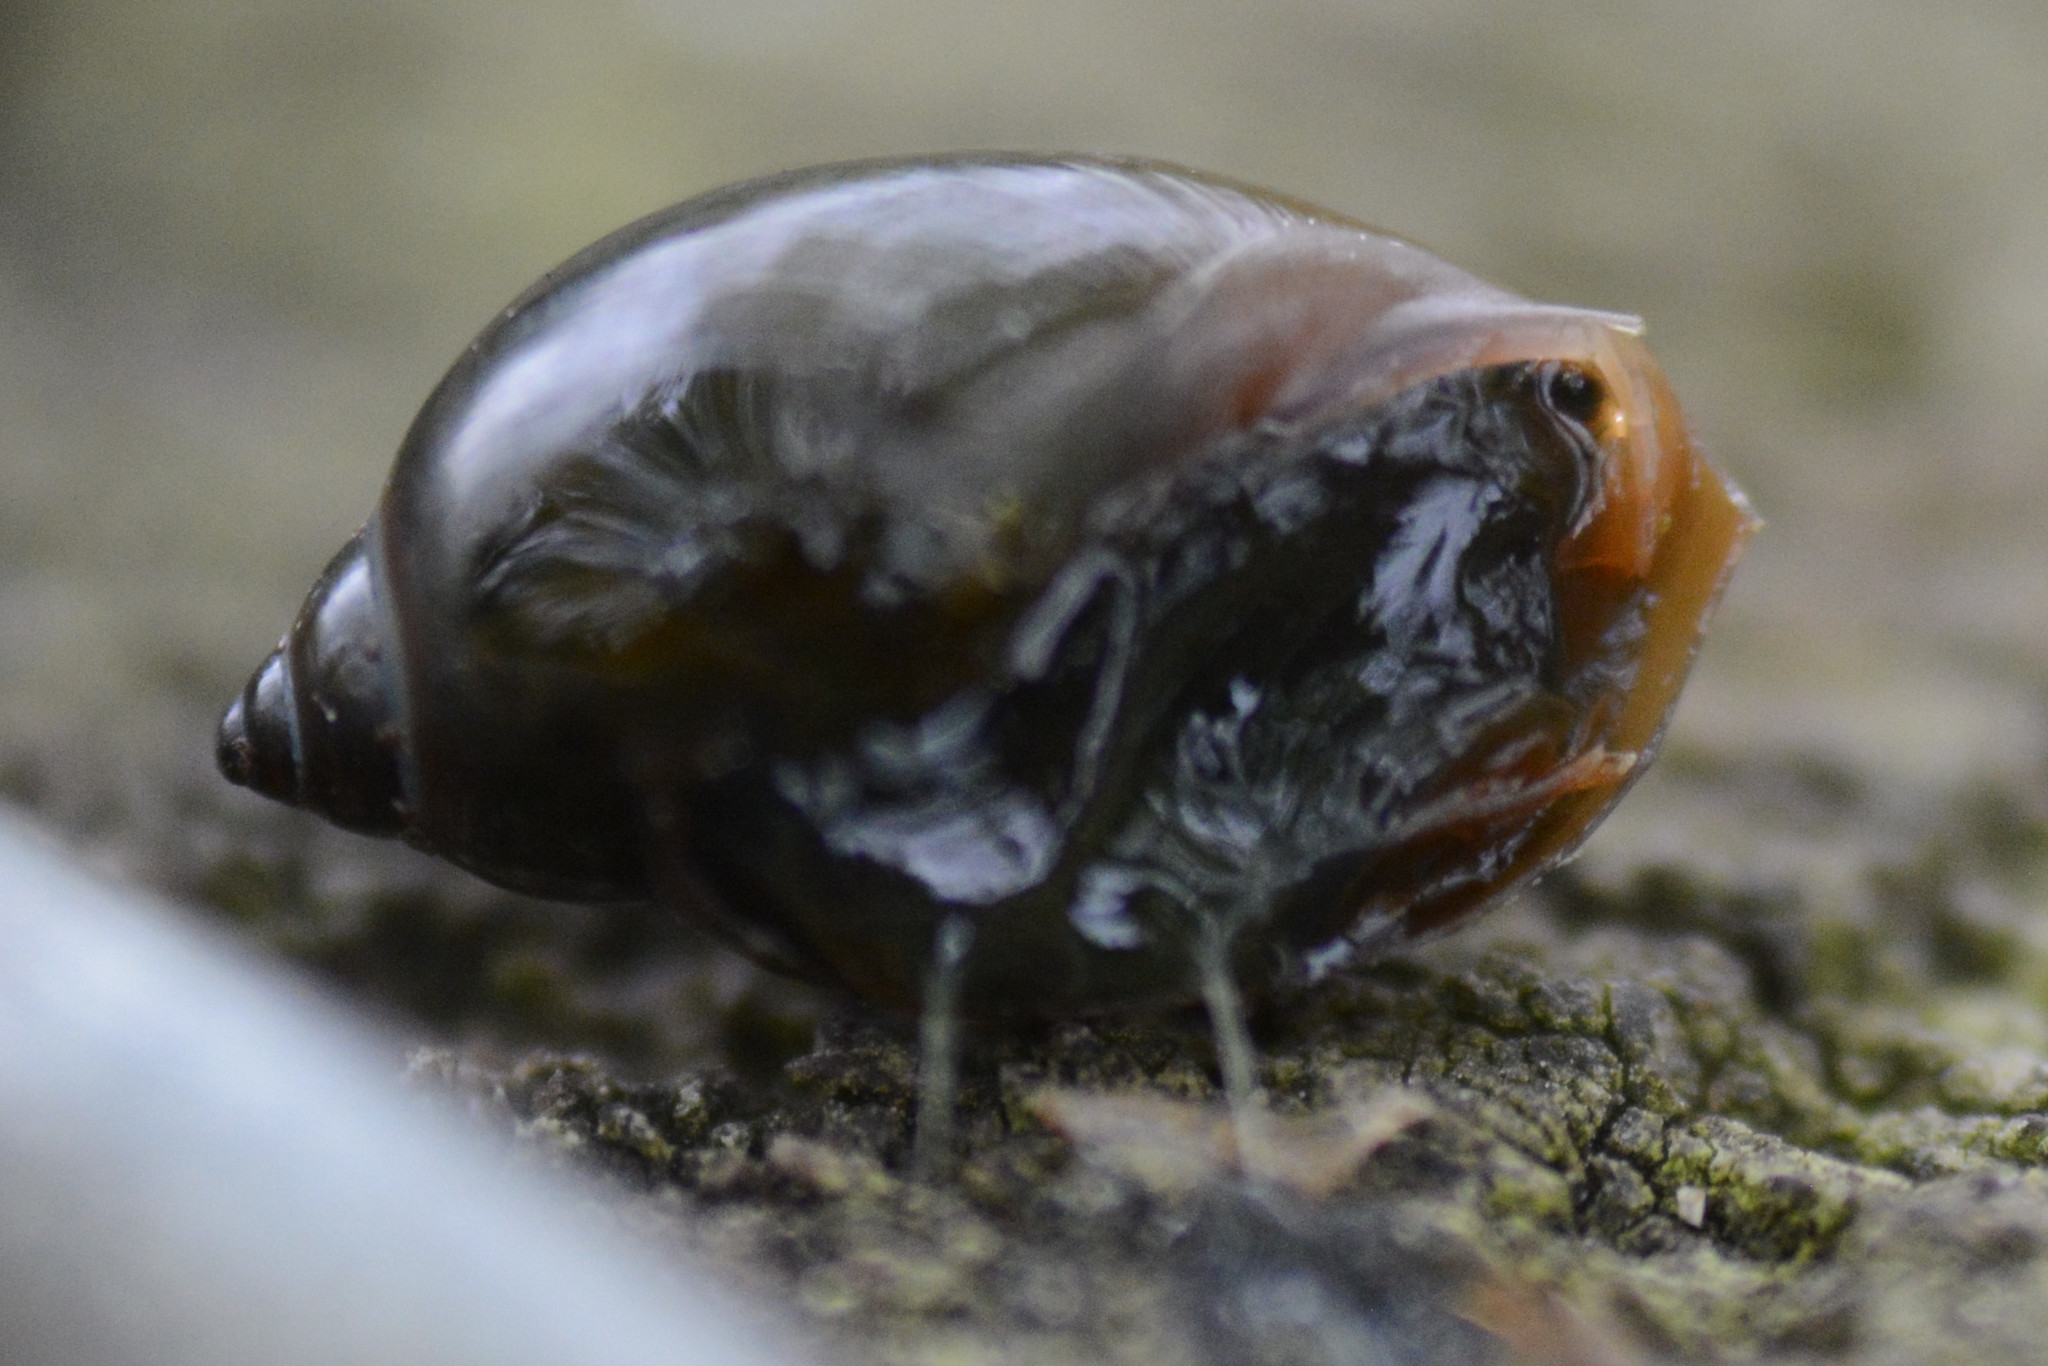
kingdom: Animalia
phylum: Mollusca
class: Gastropoda
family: Physidae
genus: Physella
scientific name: Physella acuta
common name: European physa
